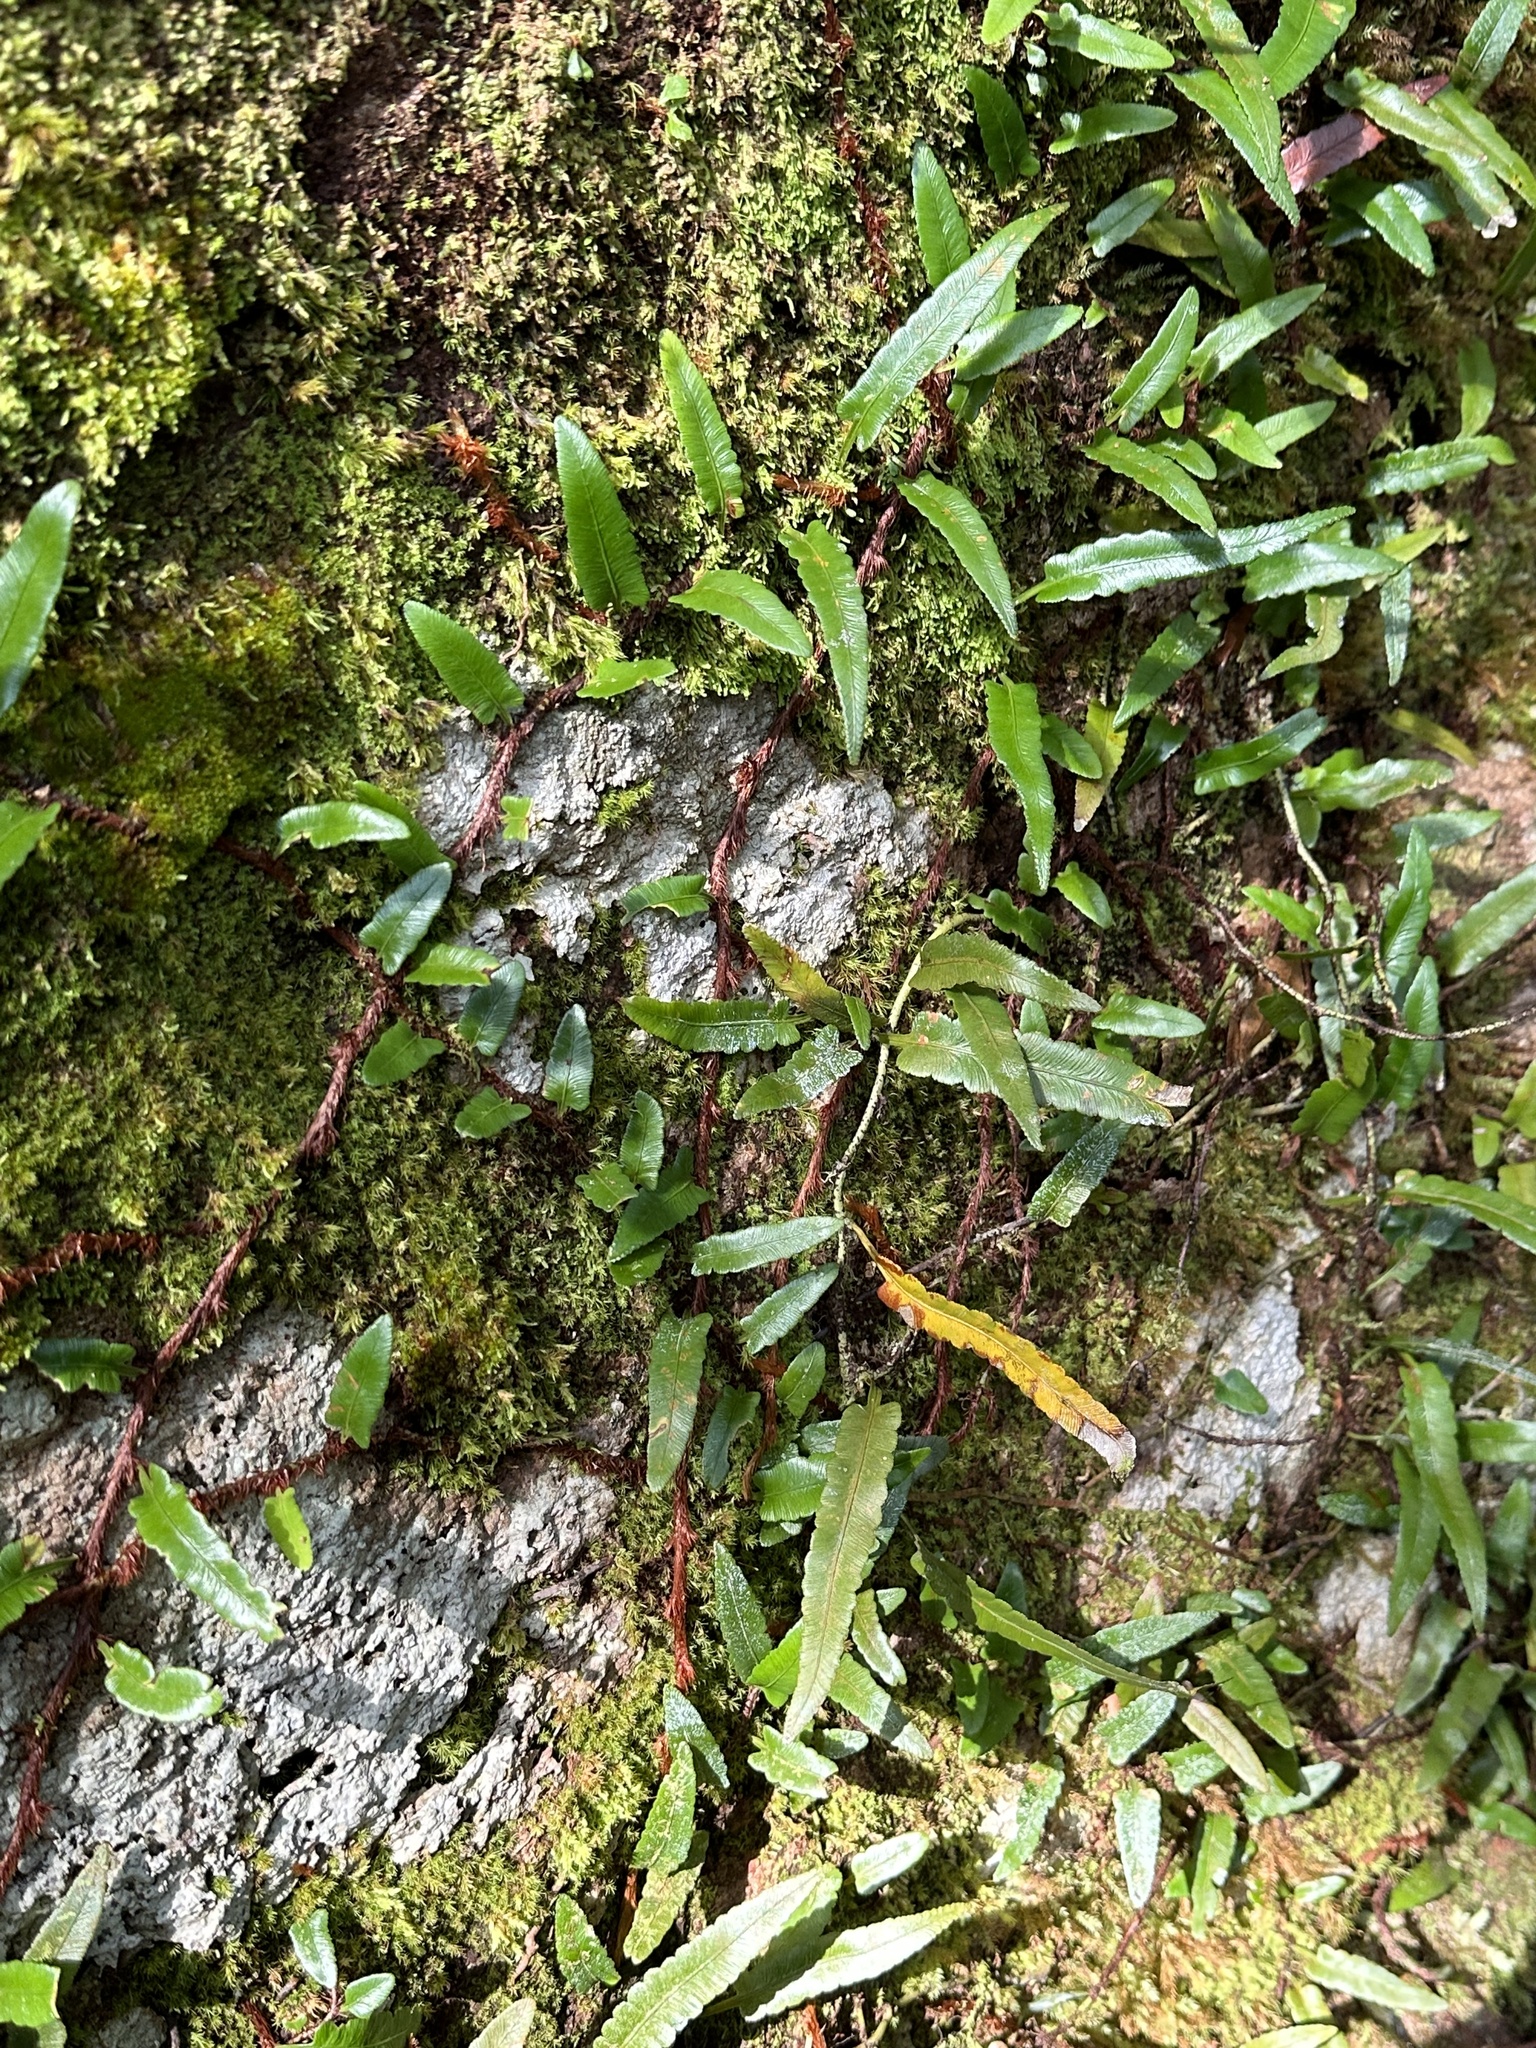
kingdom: Plantae
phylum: Tracheophyta
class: Polypodiopsida
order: Polypodiales
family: Davalliaceae
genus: Davallia
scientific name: Davallia angustata
